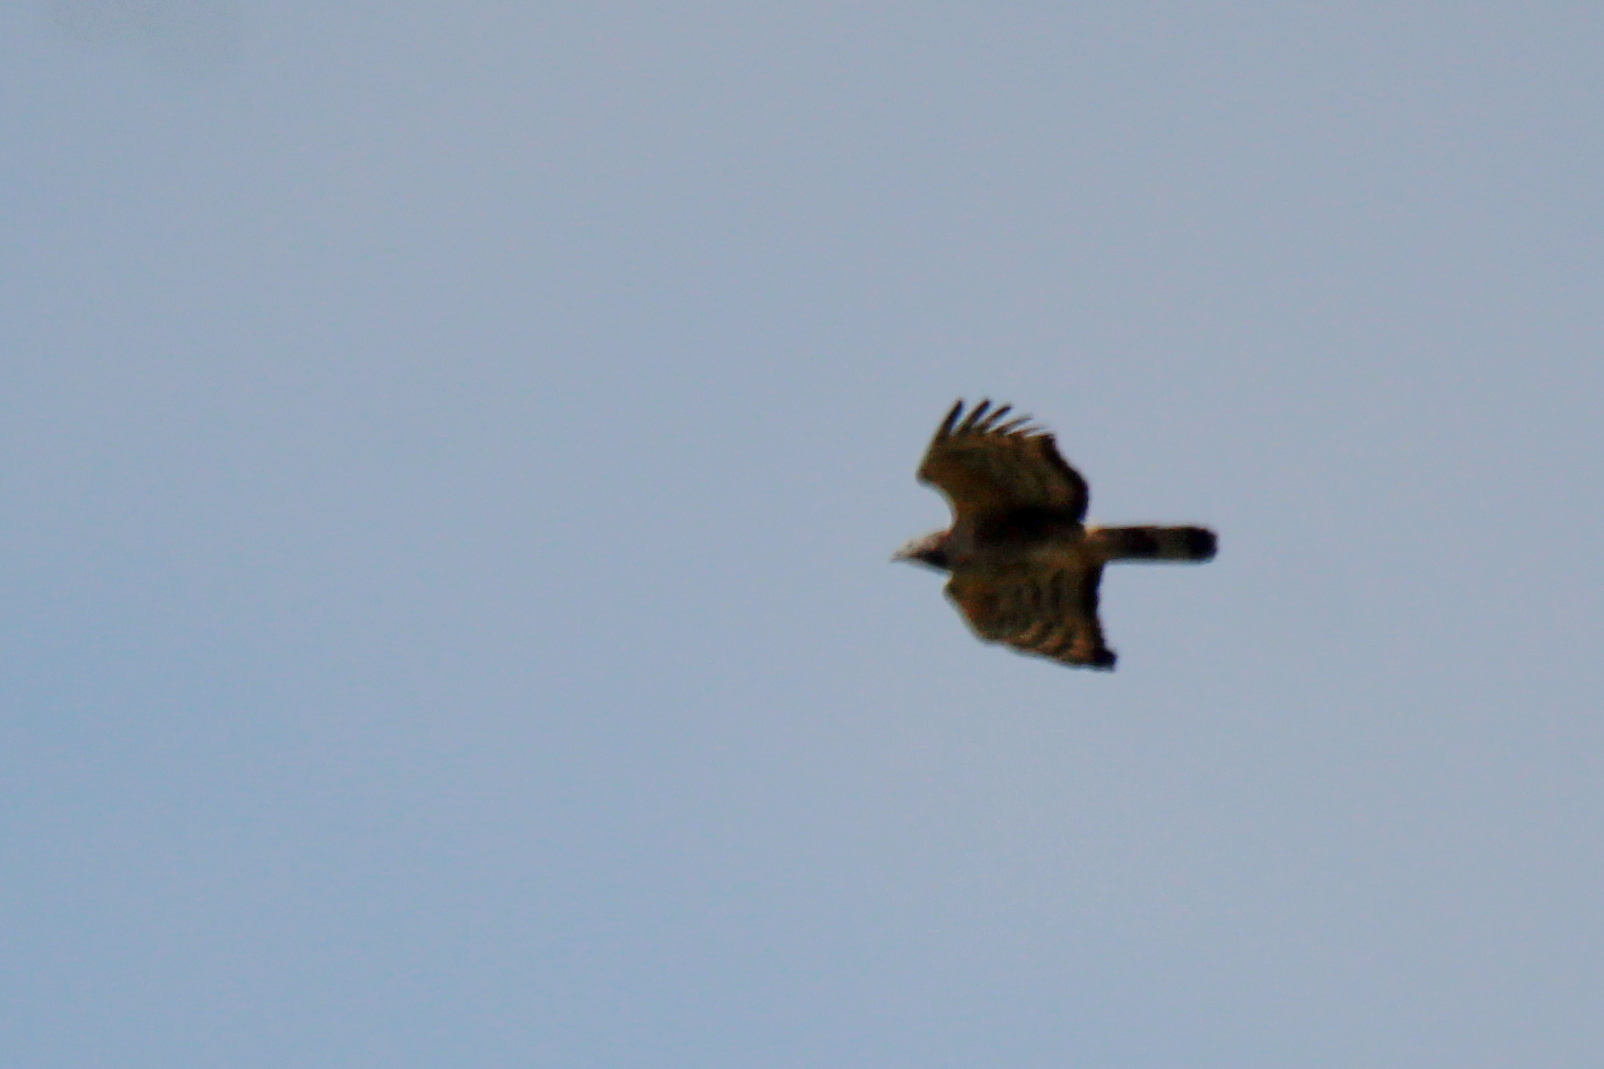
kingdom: Animalia
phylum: Chordata
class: Aves
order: Accipitriformes
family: Accipitridae
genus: Pernis
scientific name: Pernis ptilorhynchus
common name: Crested honey buzzard
